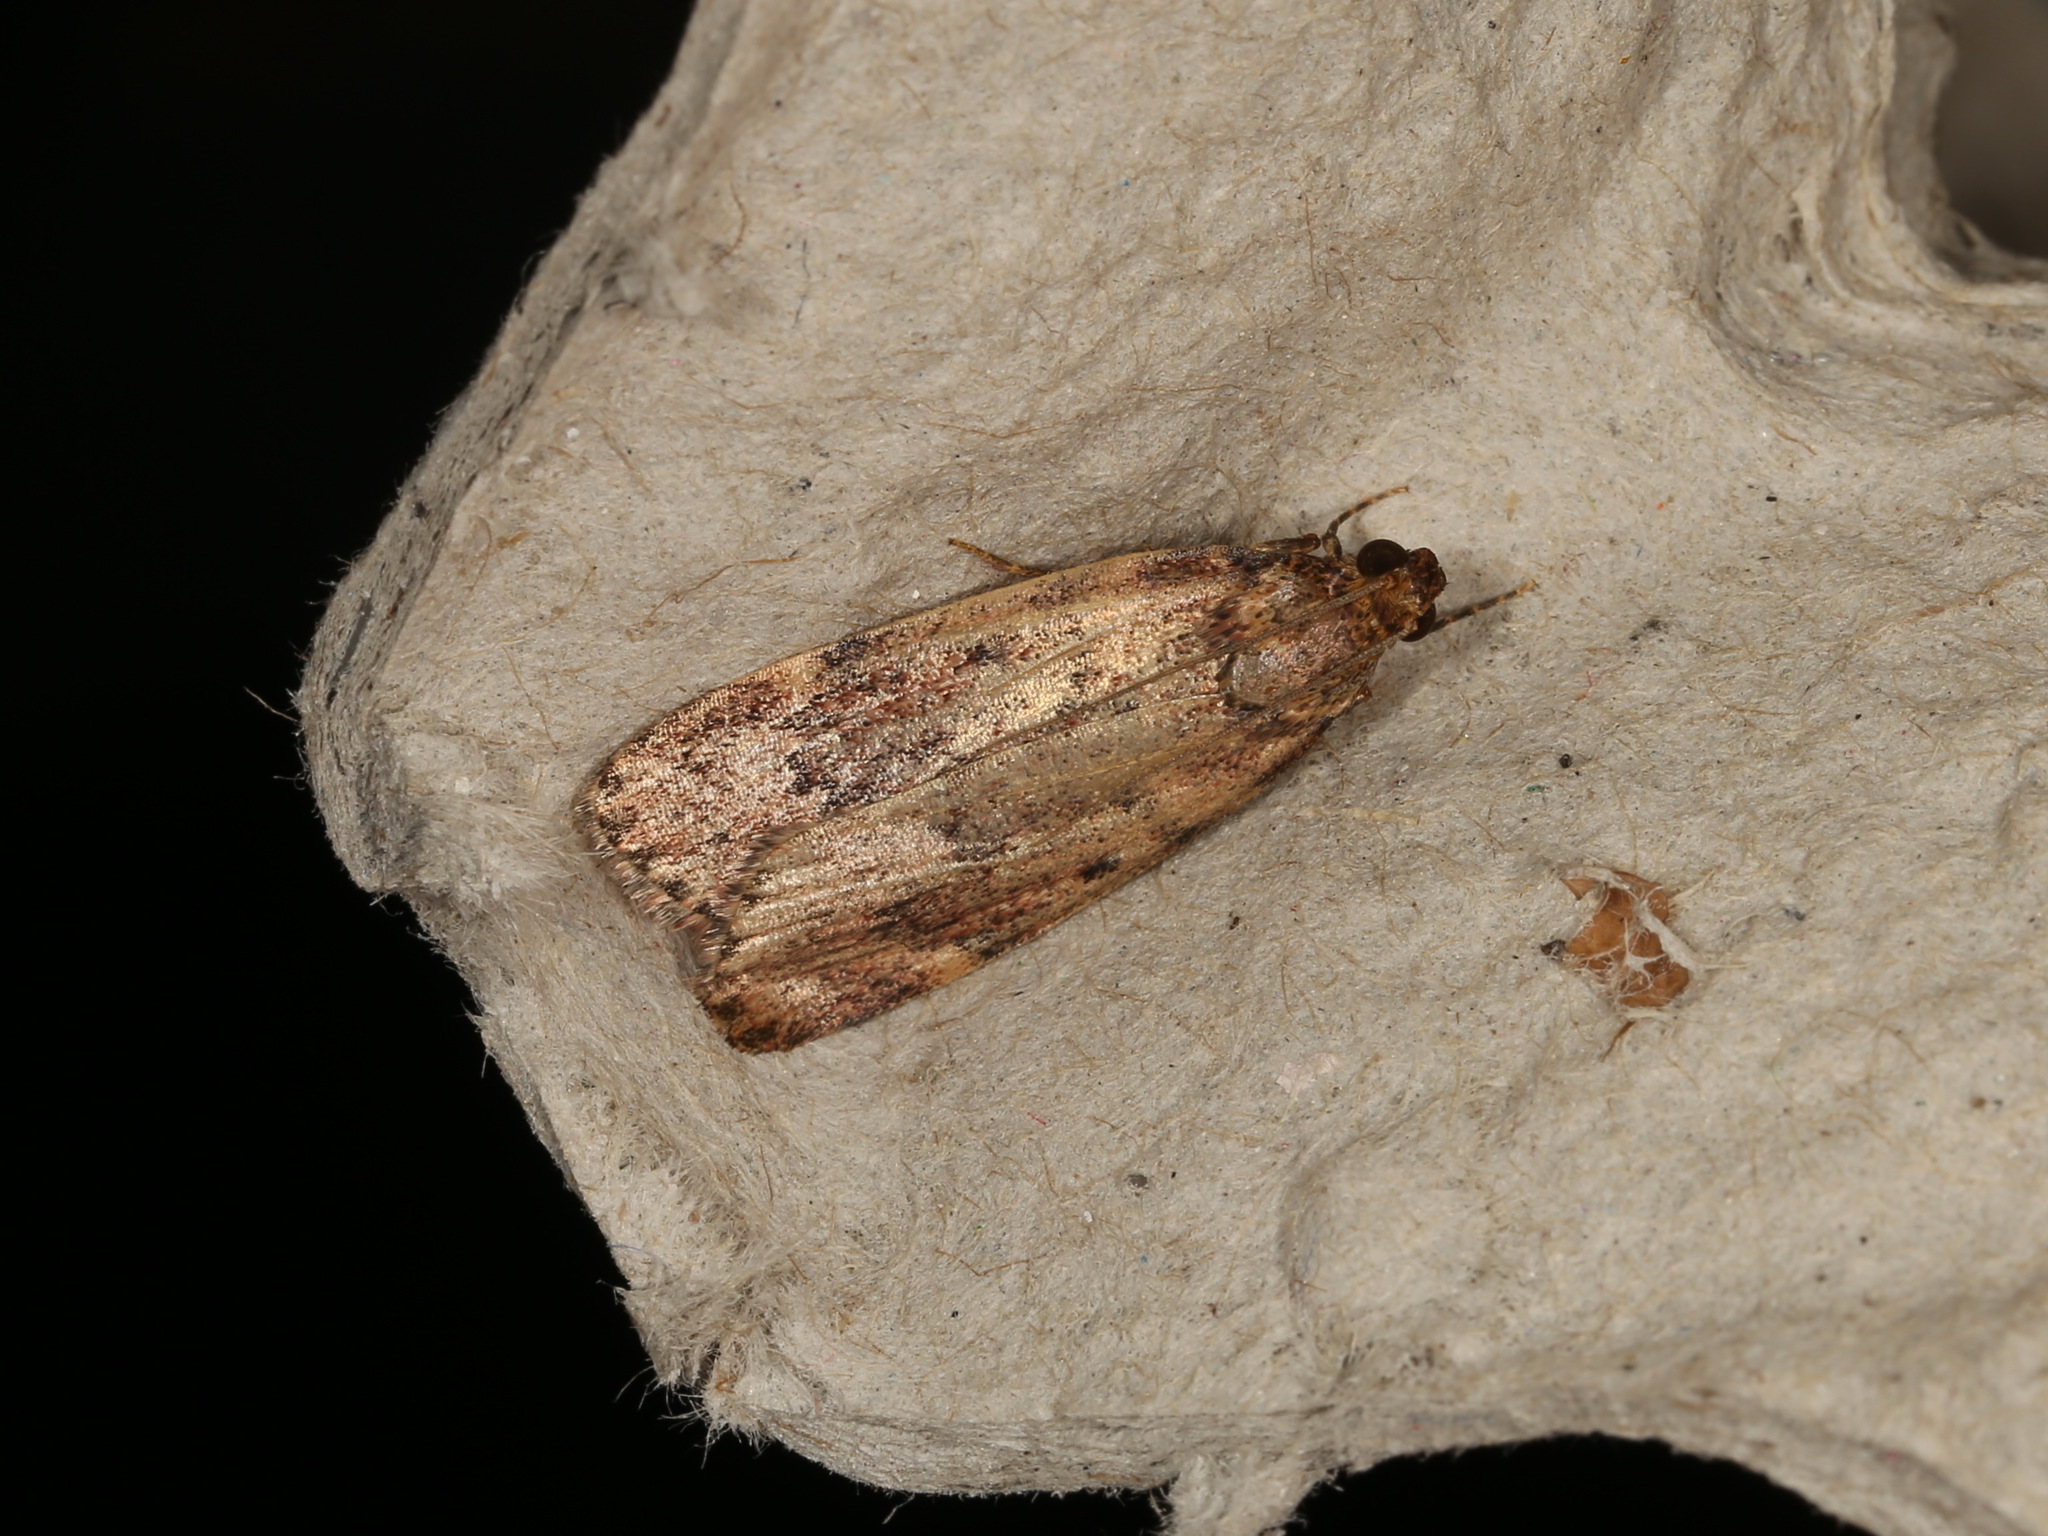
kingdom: Animalia
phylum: Arthropoda
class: Insecta
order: Lepidoptera
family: Pyralidae
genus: Mimaglossa
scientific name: Mimaglossa nauplialis
